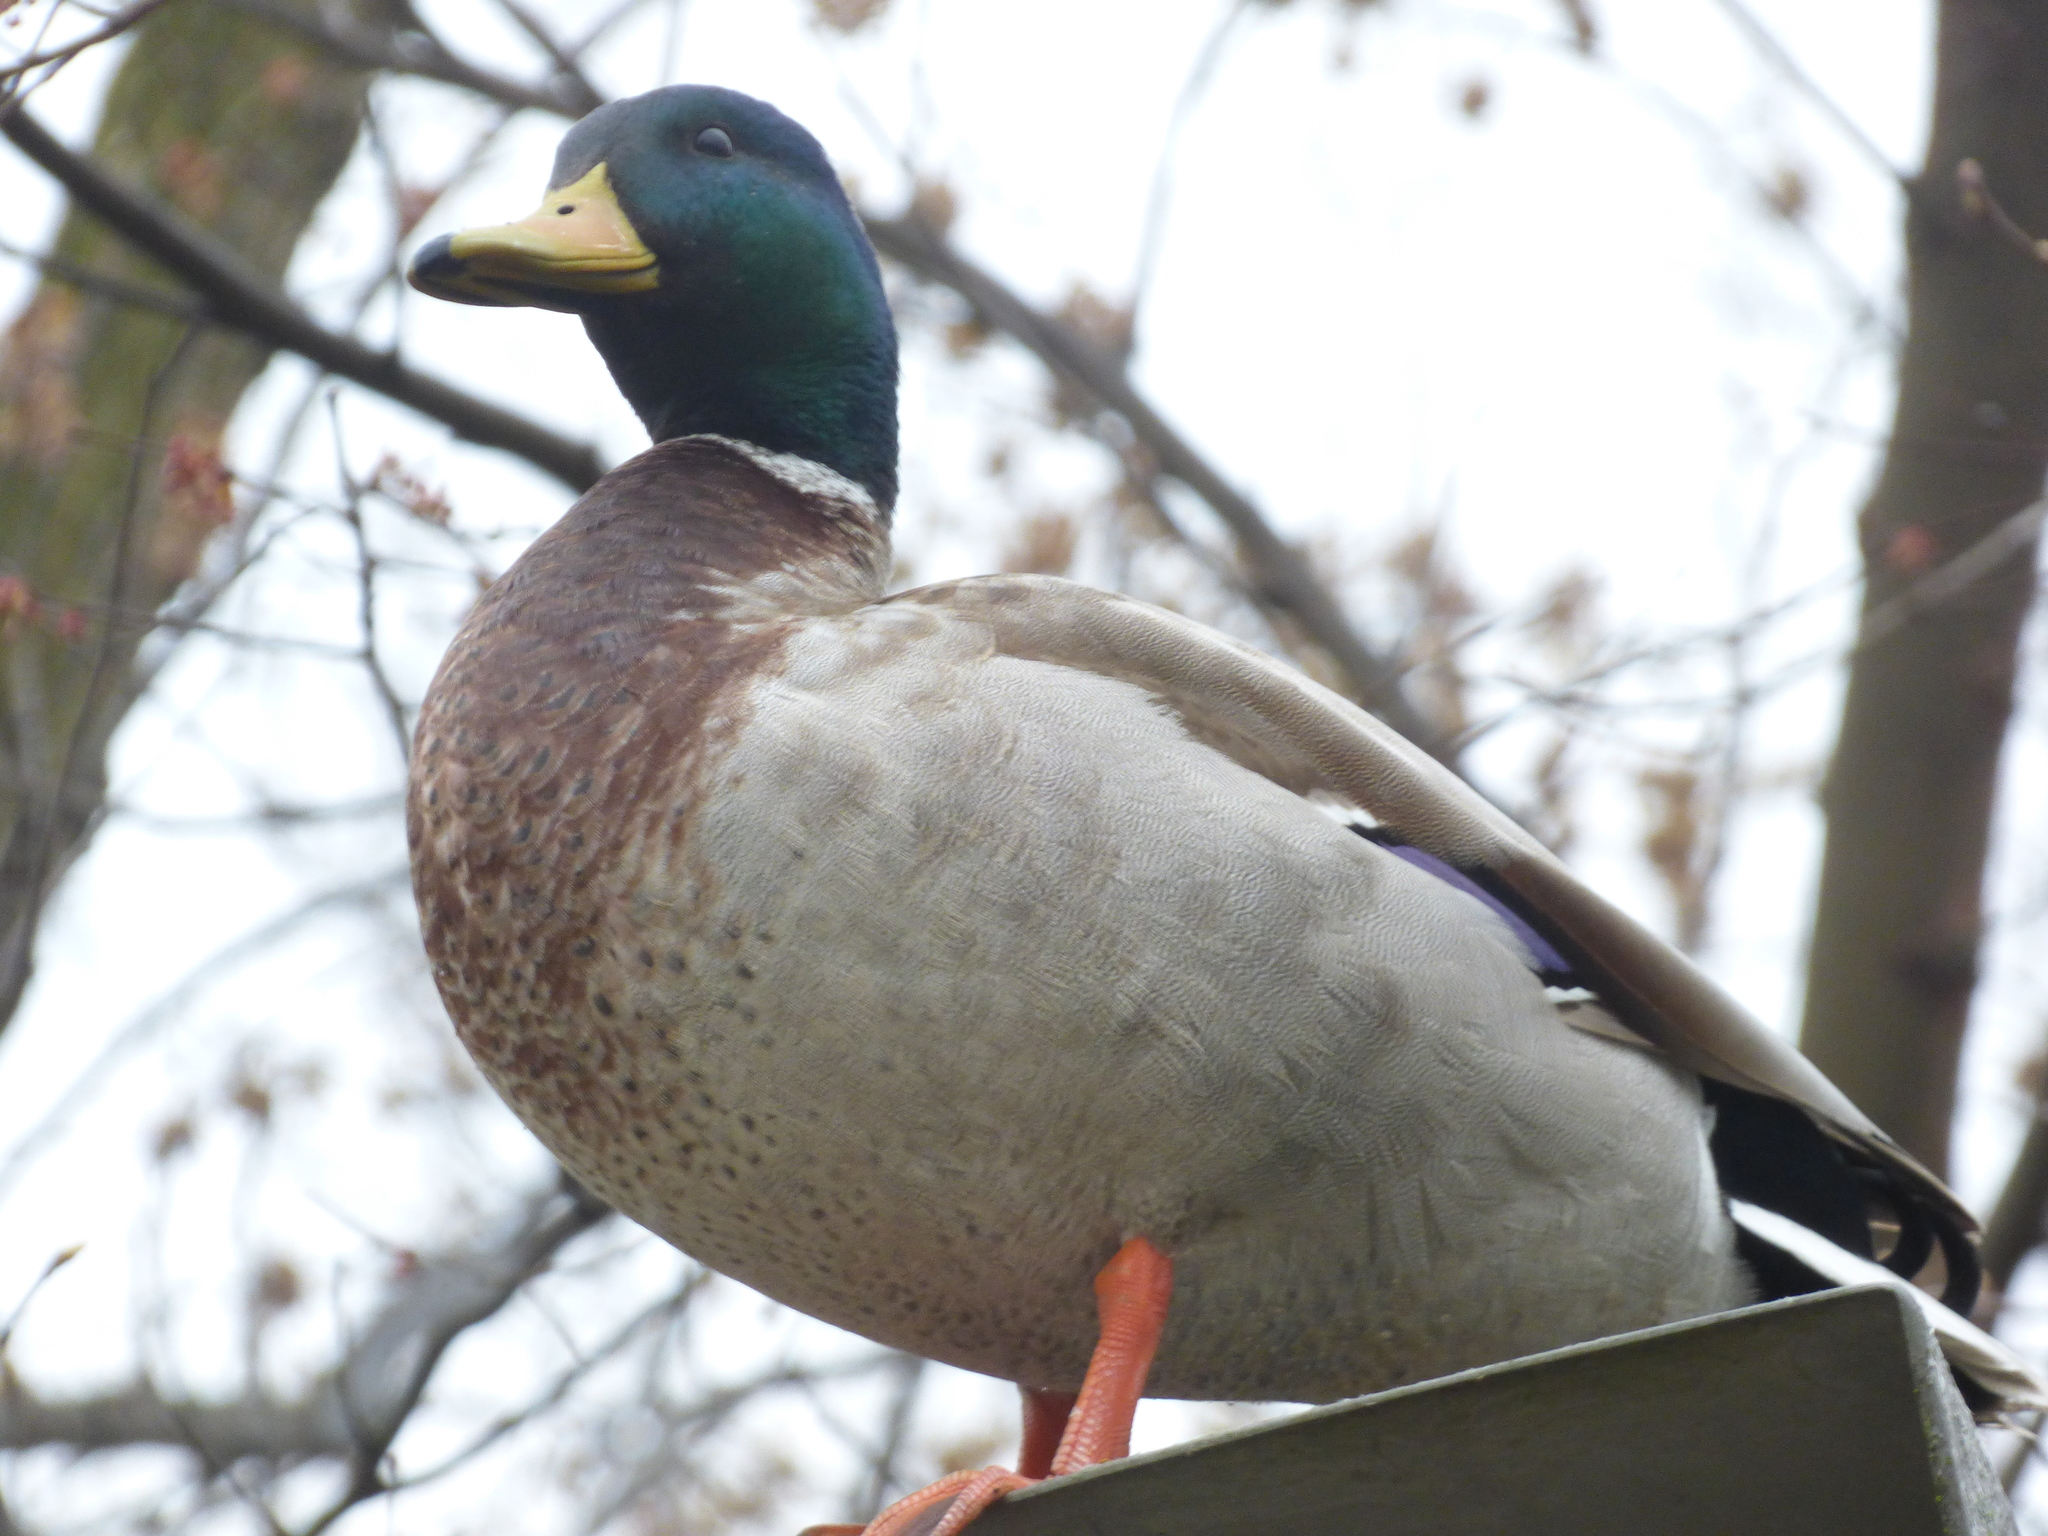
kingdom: Animalia
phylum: Chordata
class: Aves
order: Anseriformes
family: Anatidae
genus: Anas
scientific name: Anas platyrhynchos
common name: Mallard
